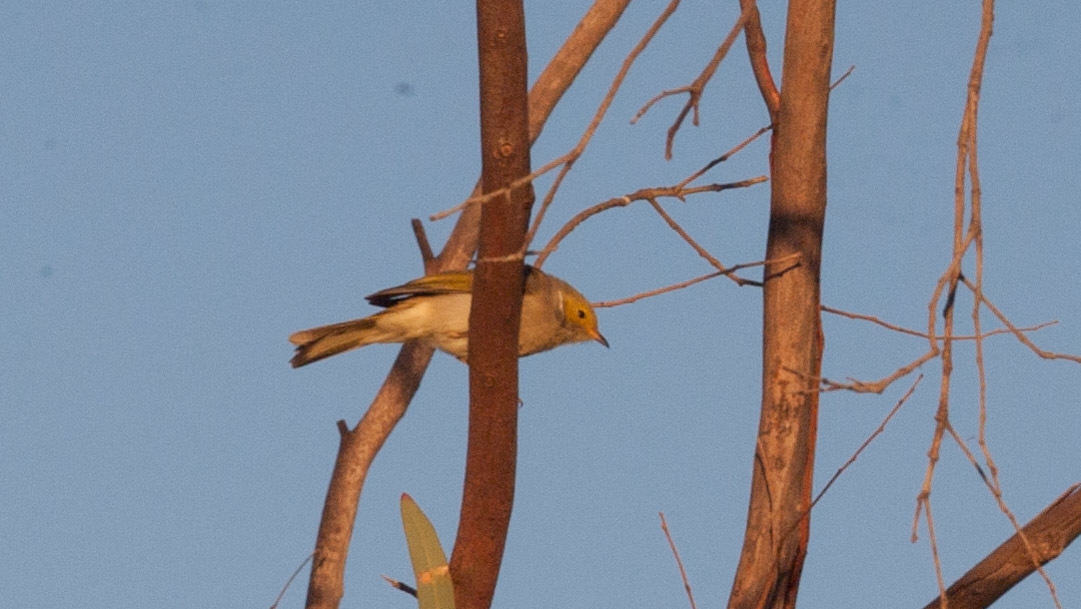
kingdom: Animalia
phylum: Chordata
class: Aves
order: Passeriformes
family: Meliphagidae
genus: Ptilotula
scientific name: Ptilotula penicillata
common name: White-plumed honeyeater
